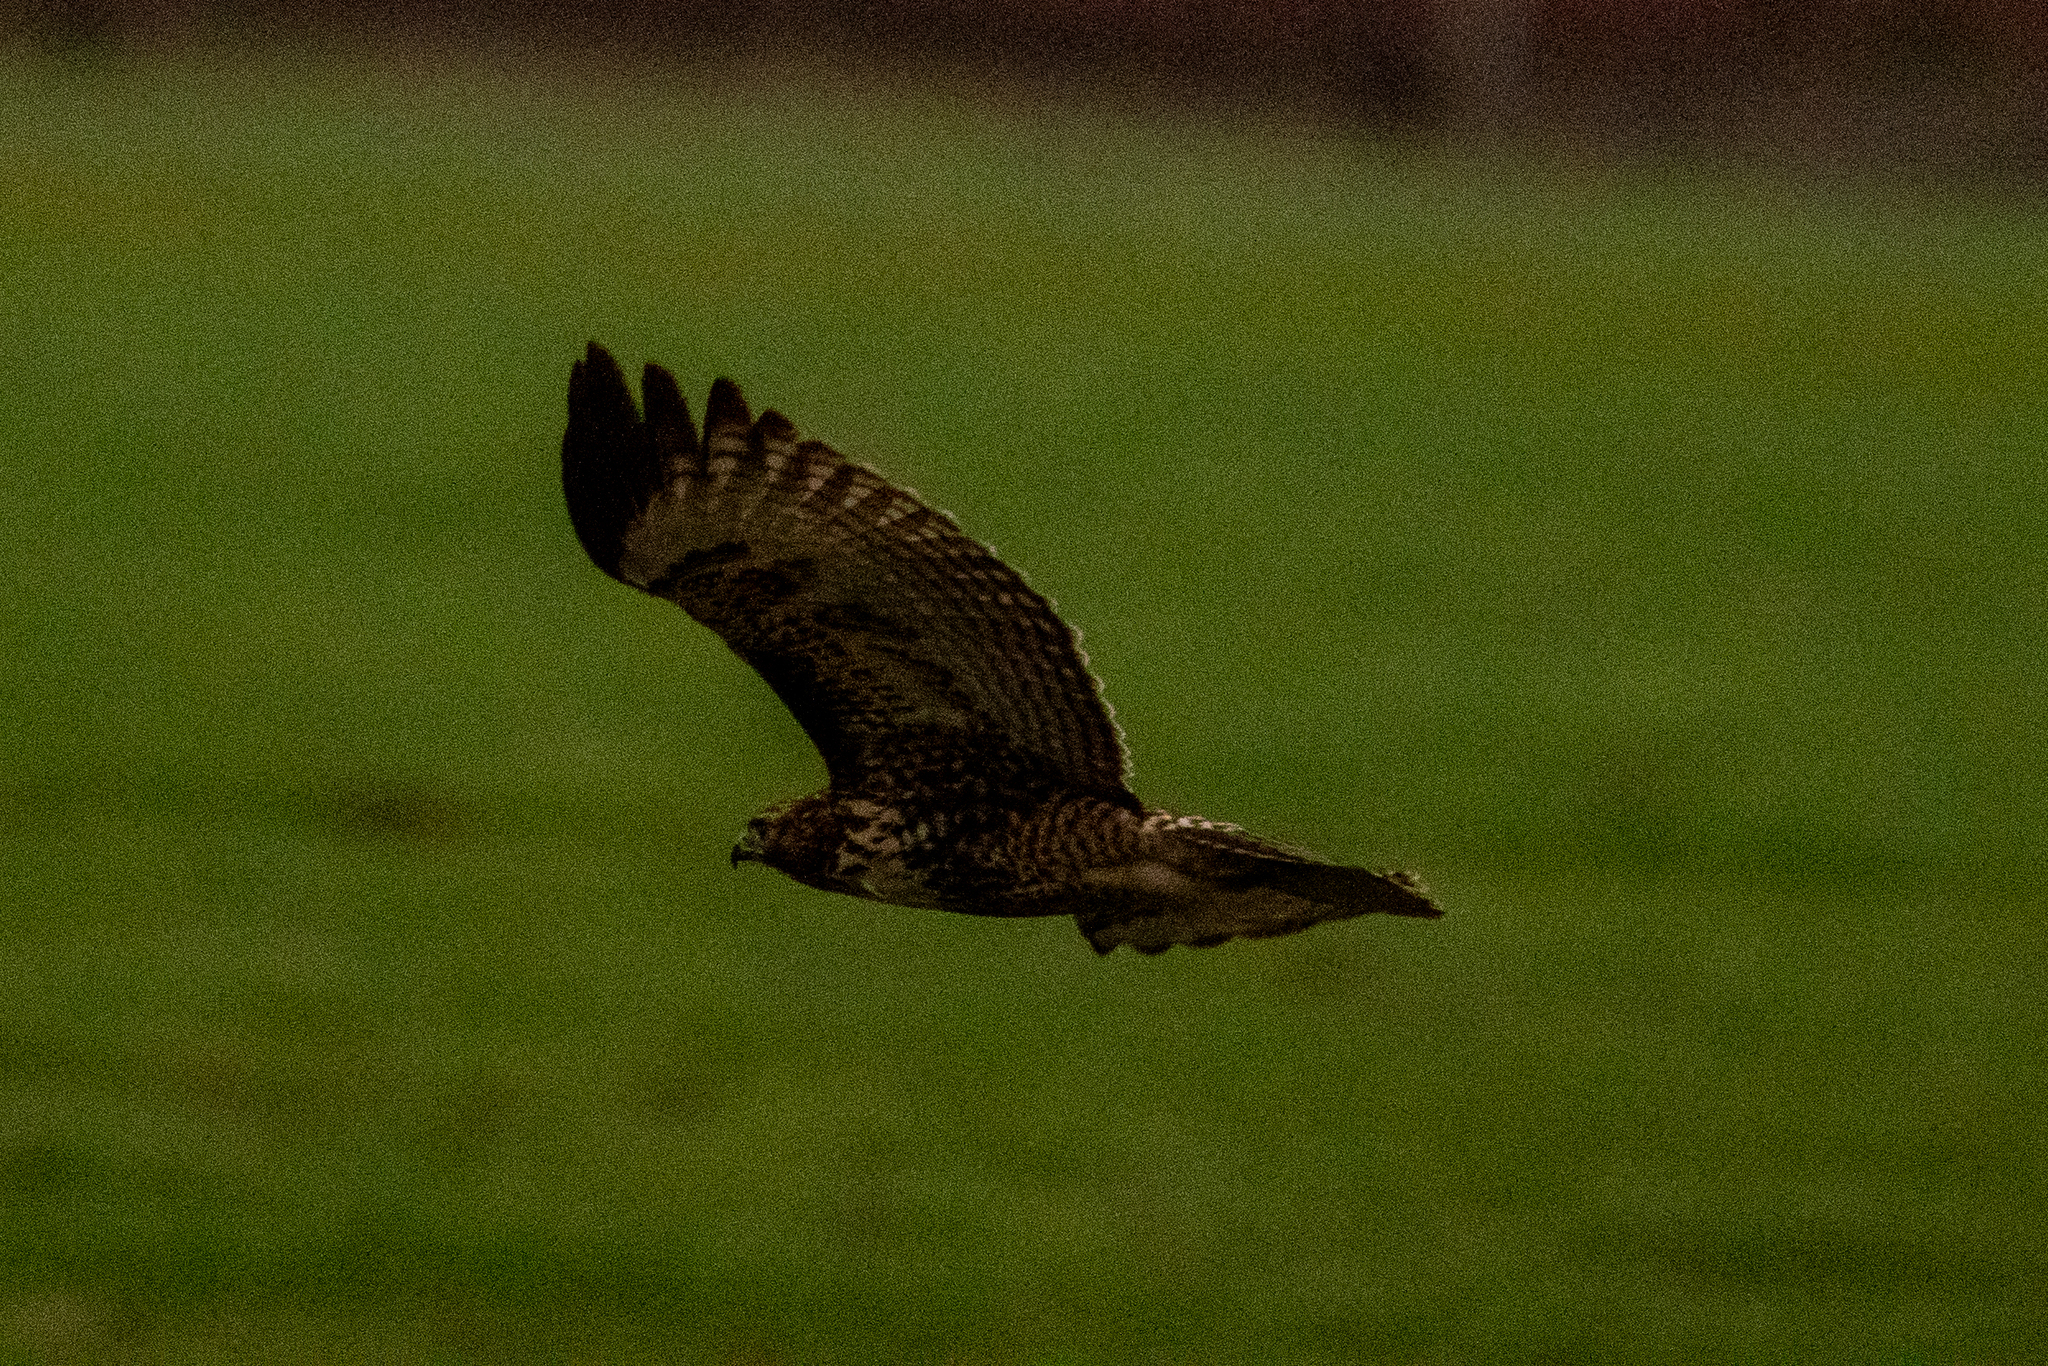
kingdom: Animalia
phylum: Chordata
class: Aves
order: Accipitriformes
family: Accipitridae
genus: Buteo
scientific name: Buteo jamaicensis
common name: Red-tailed hawk
